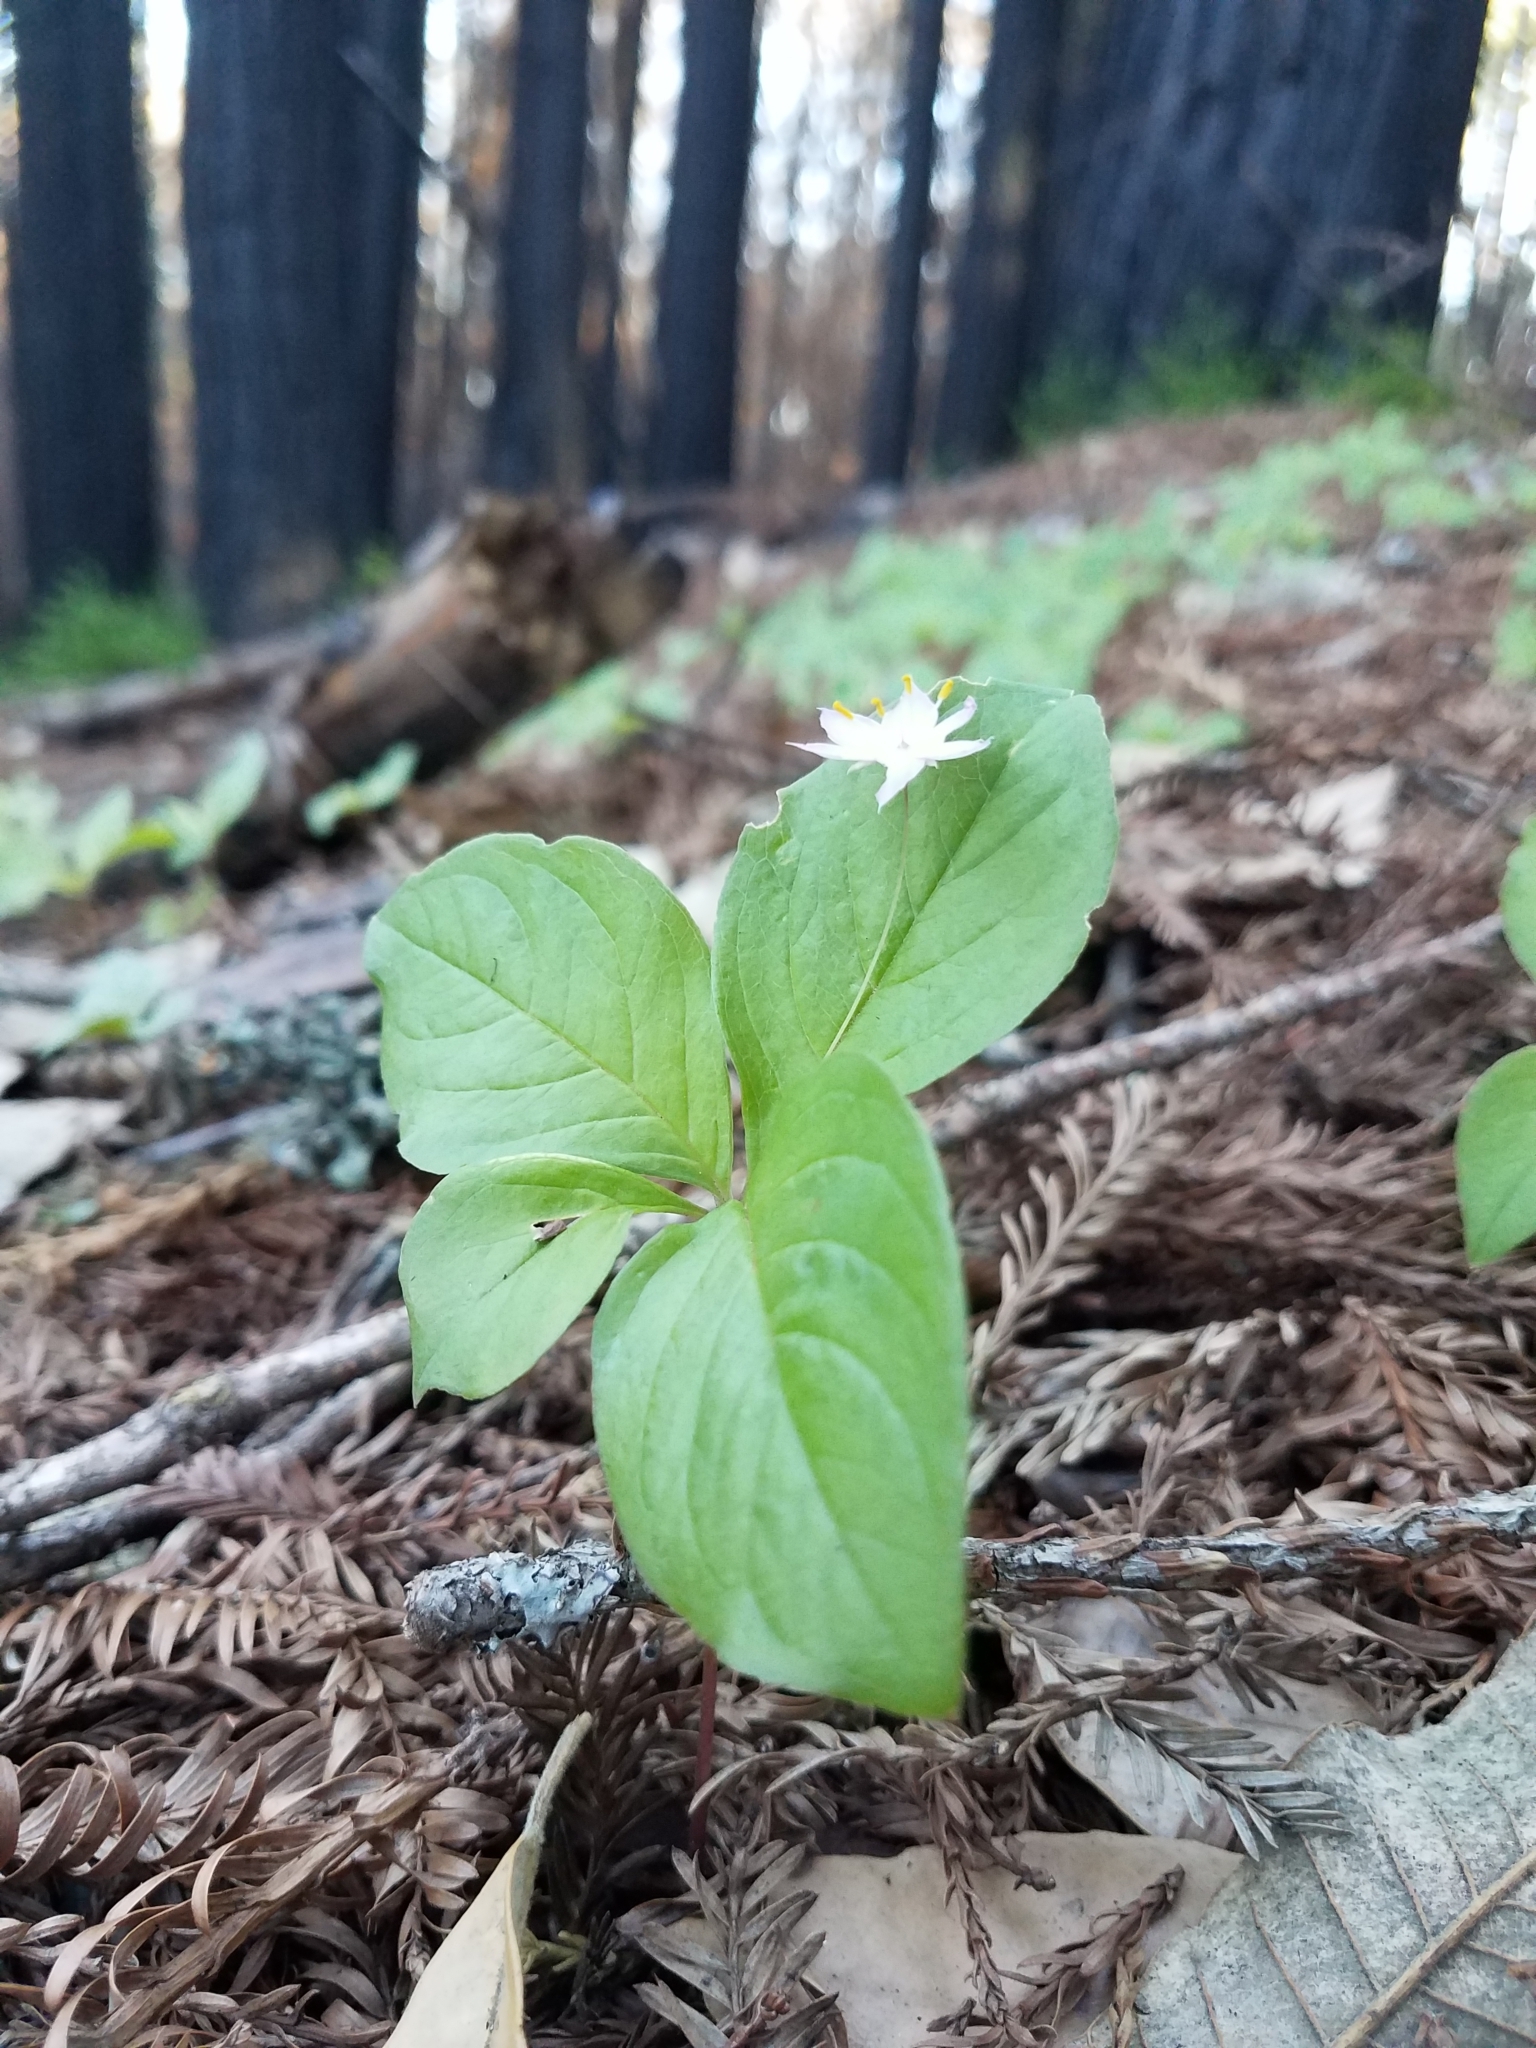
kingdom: Plantae
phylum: Tracheophyta
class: Magnoliopsida
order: Ericales
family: Primulaceae
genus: Lysimachia
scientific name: Lysimachia latifolia
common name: Pacific starflower
